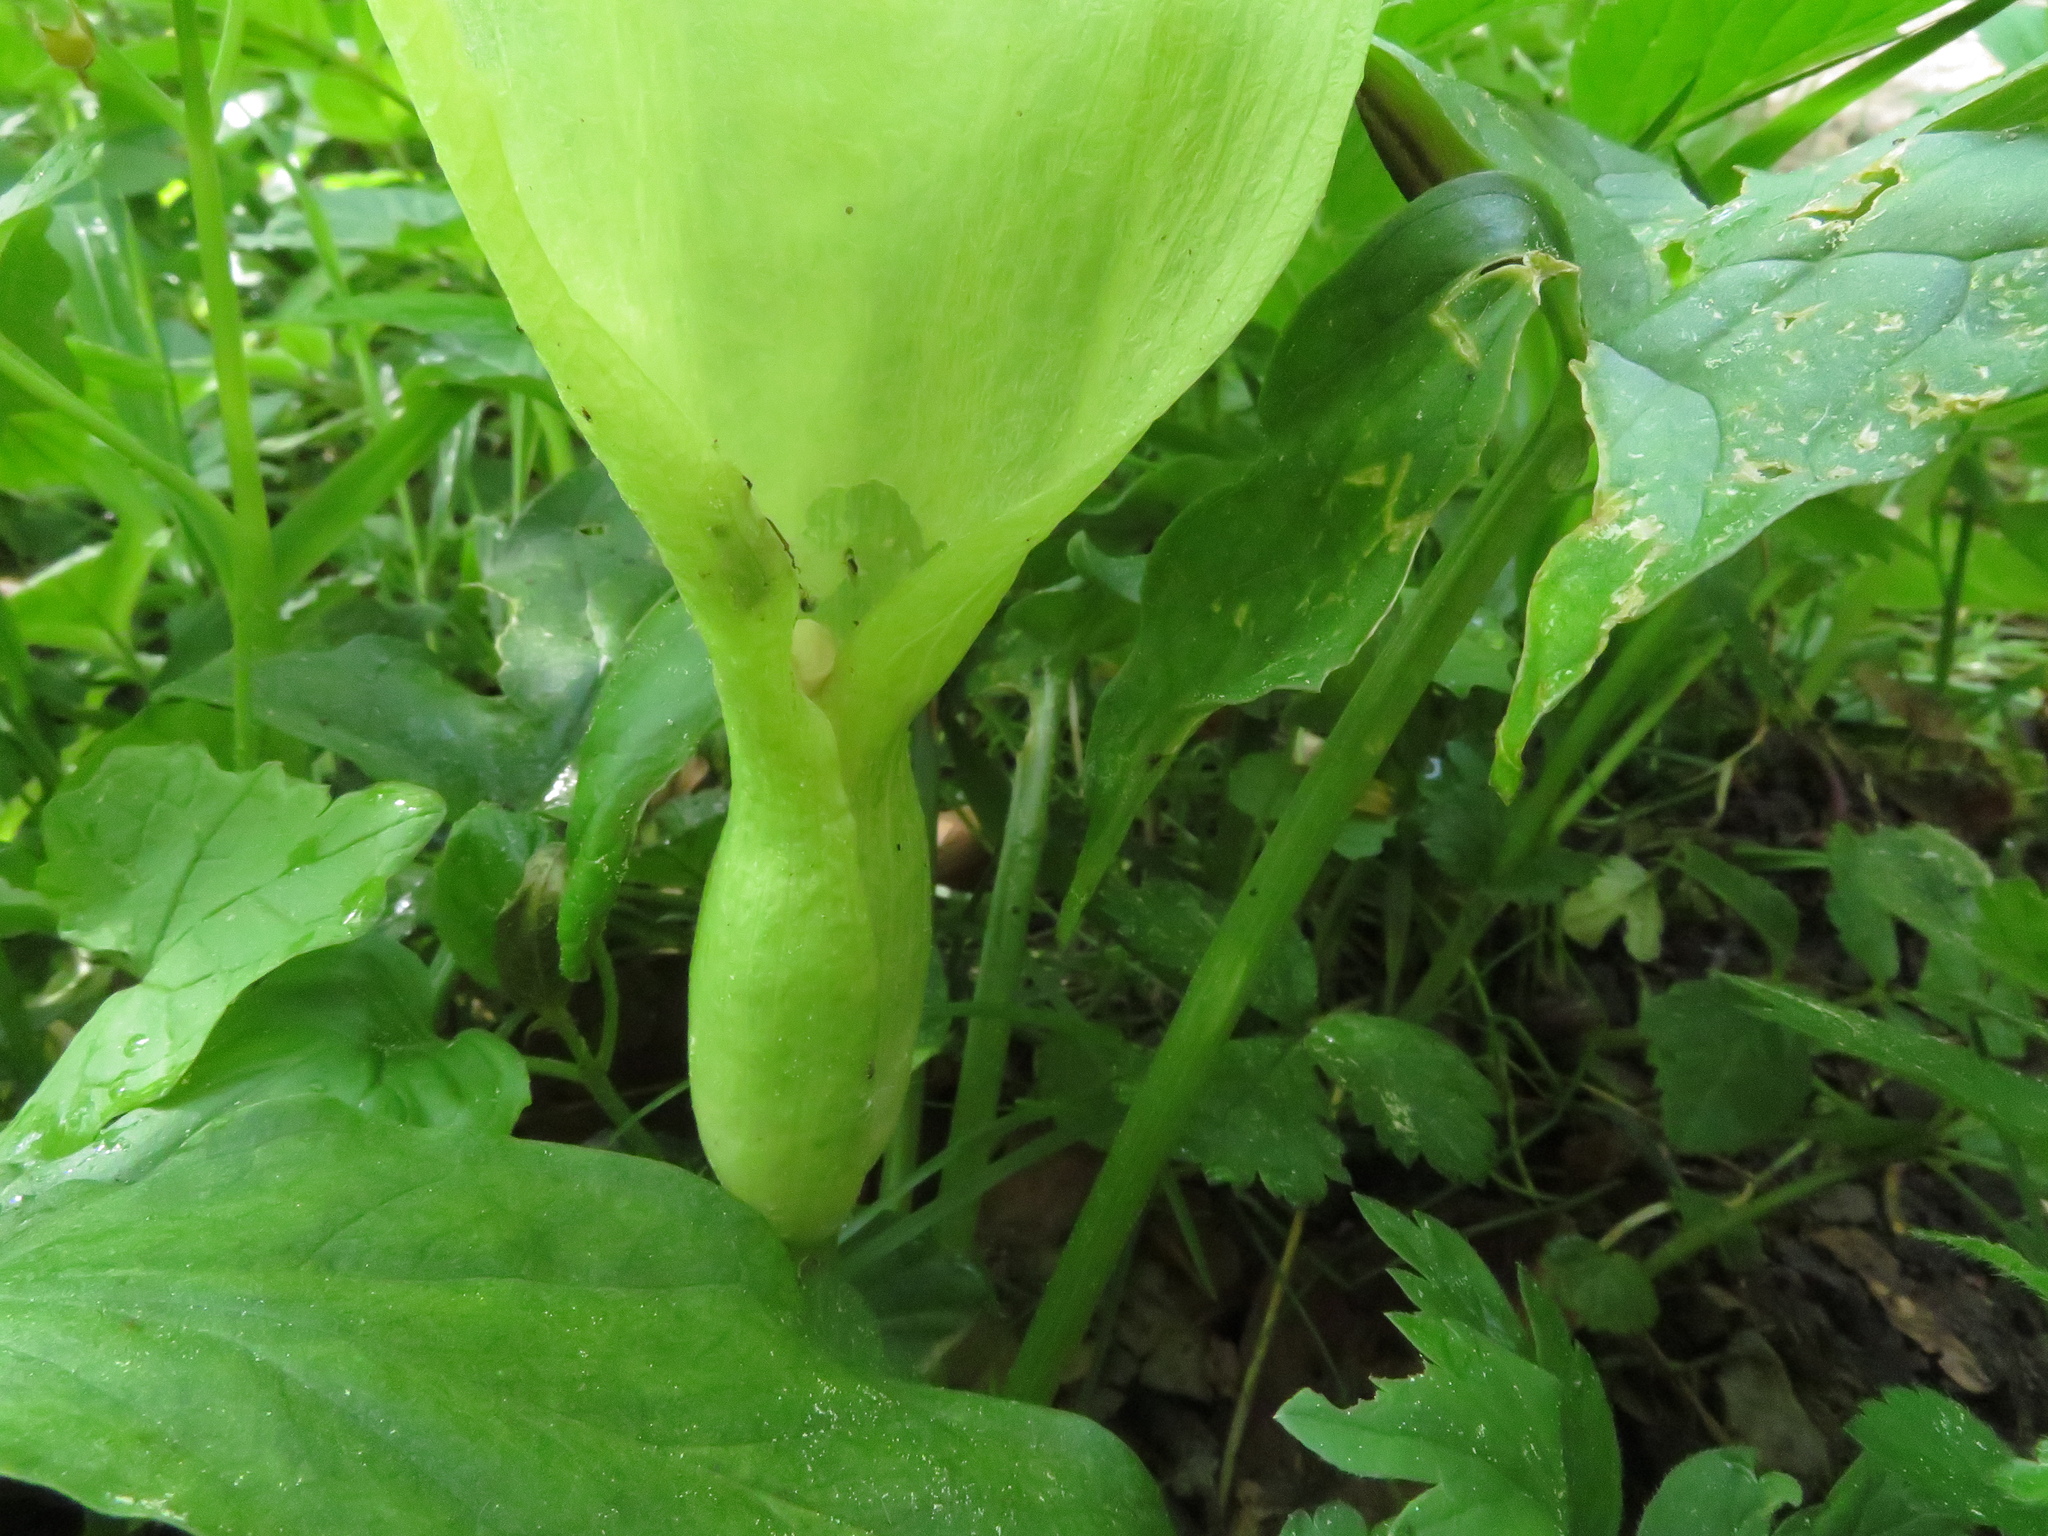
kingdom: Plantae
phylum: Tracheophyta
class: Liliopsida
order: Alismatales
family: Araceae
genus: Arum
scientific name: Arum maculatum
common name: Lords-and-ladies
